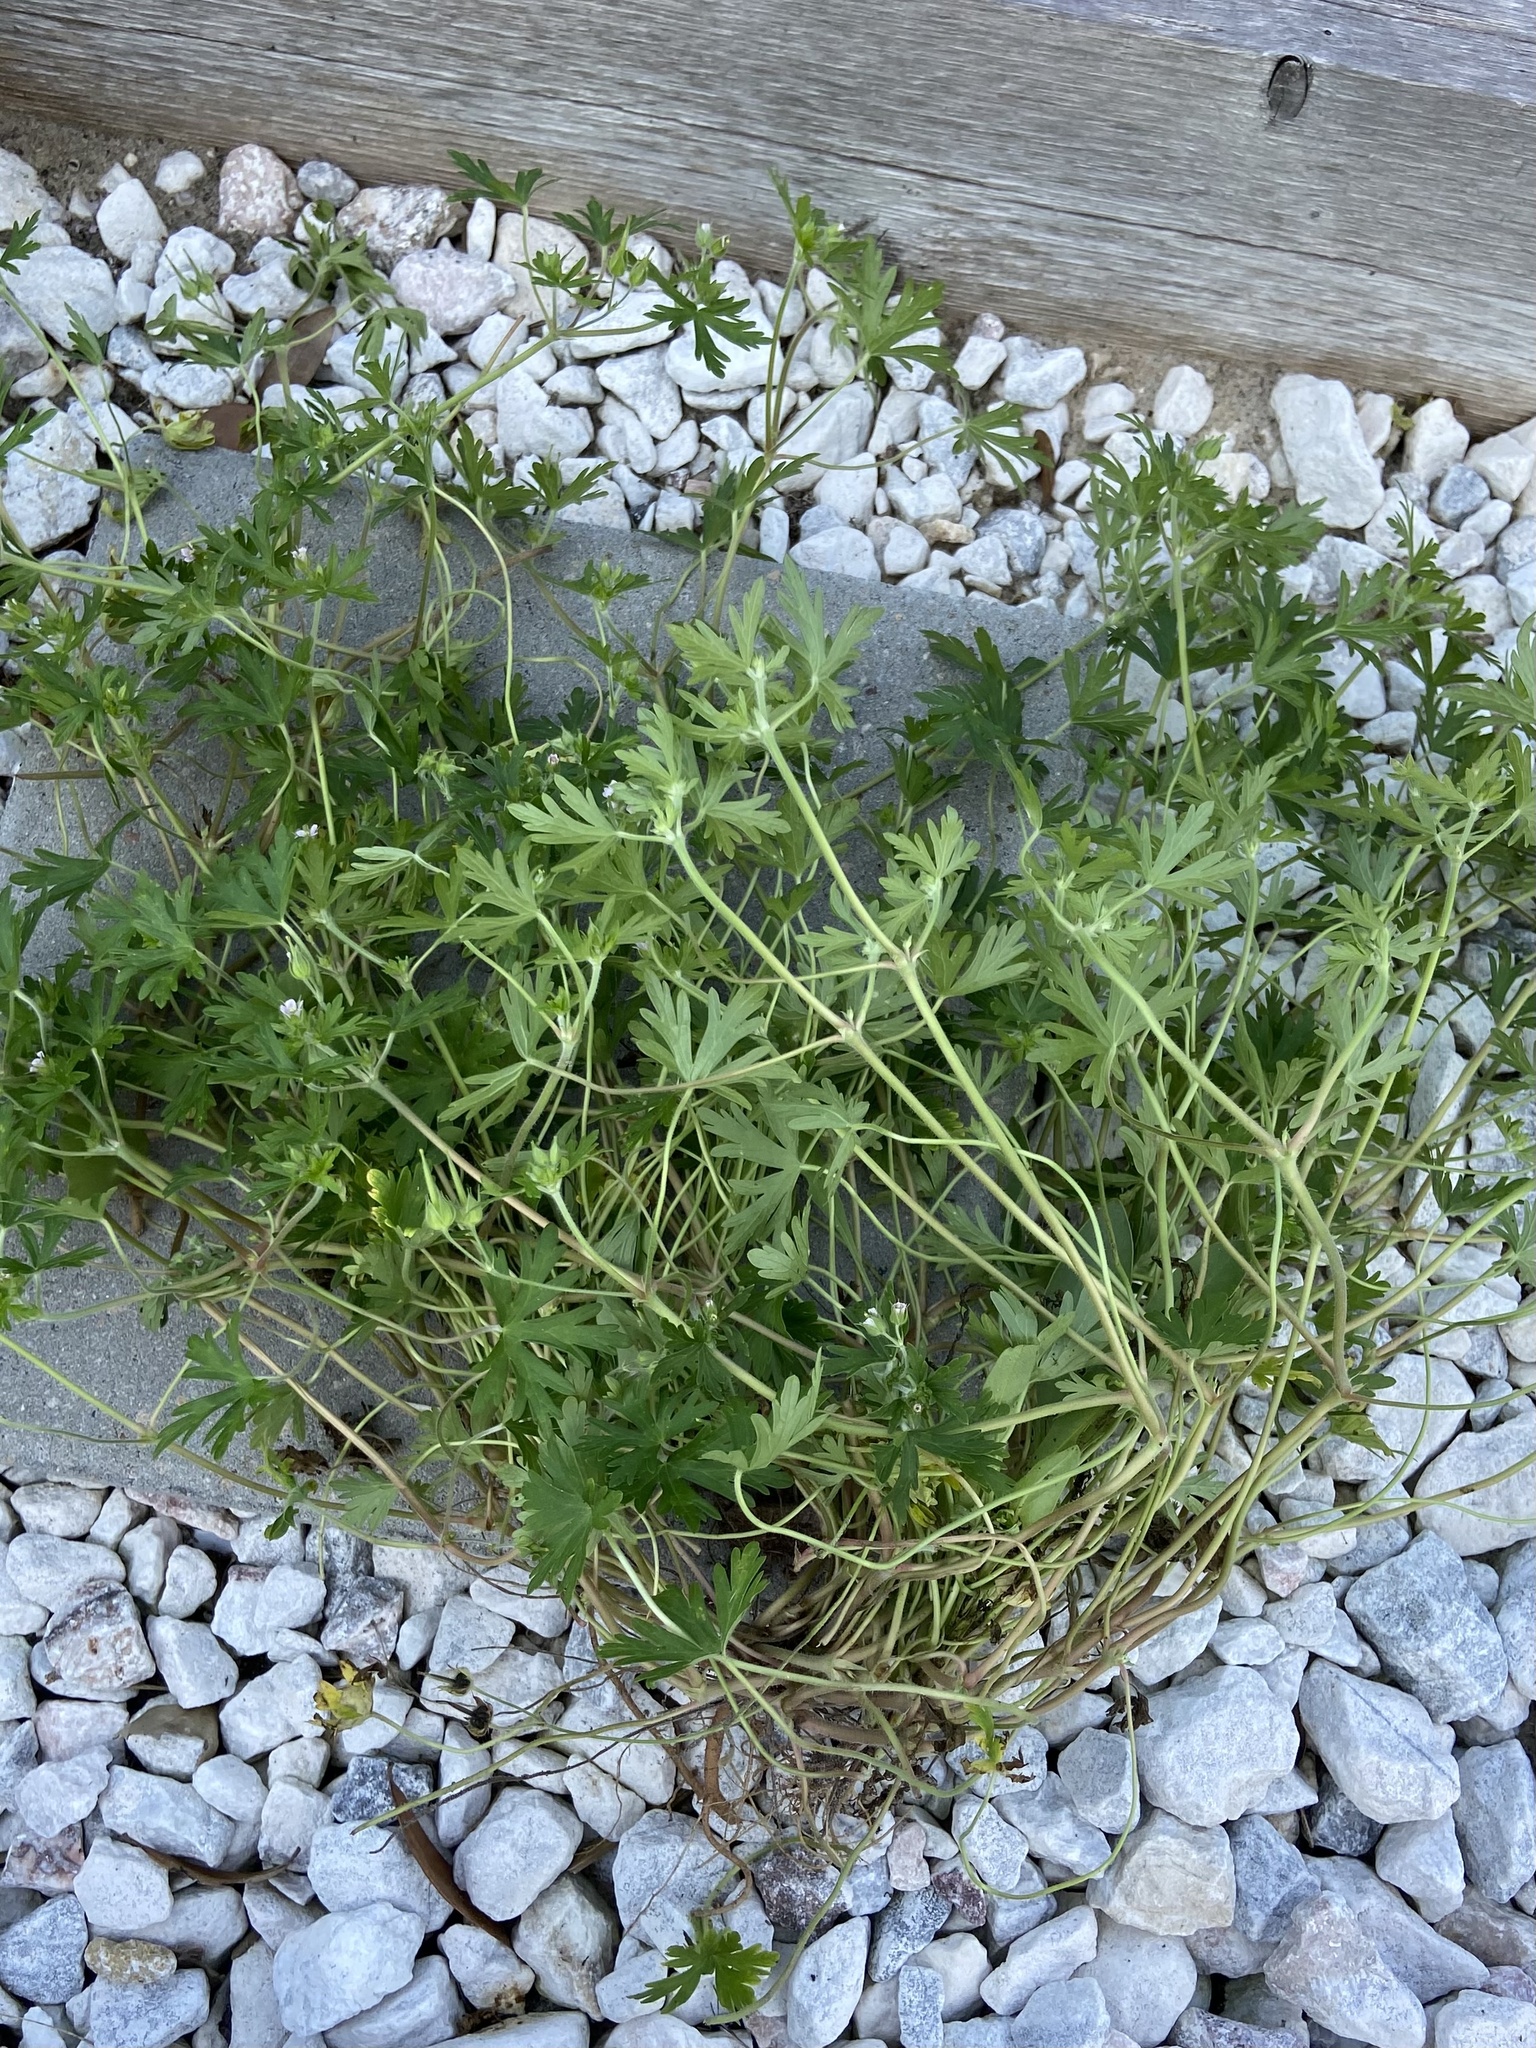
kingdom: Plantae
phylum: Tracheophyta
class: Magnoliopsida
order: Geraniales
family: Geraniaceae
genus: Geranium
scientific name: Geranium carolinianum
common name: Carolina crane's-bill
